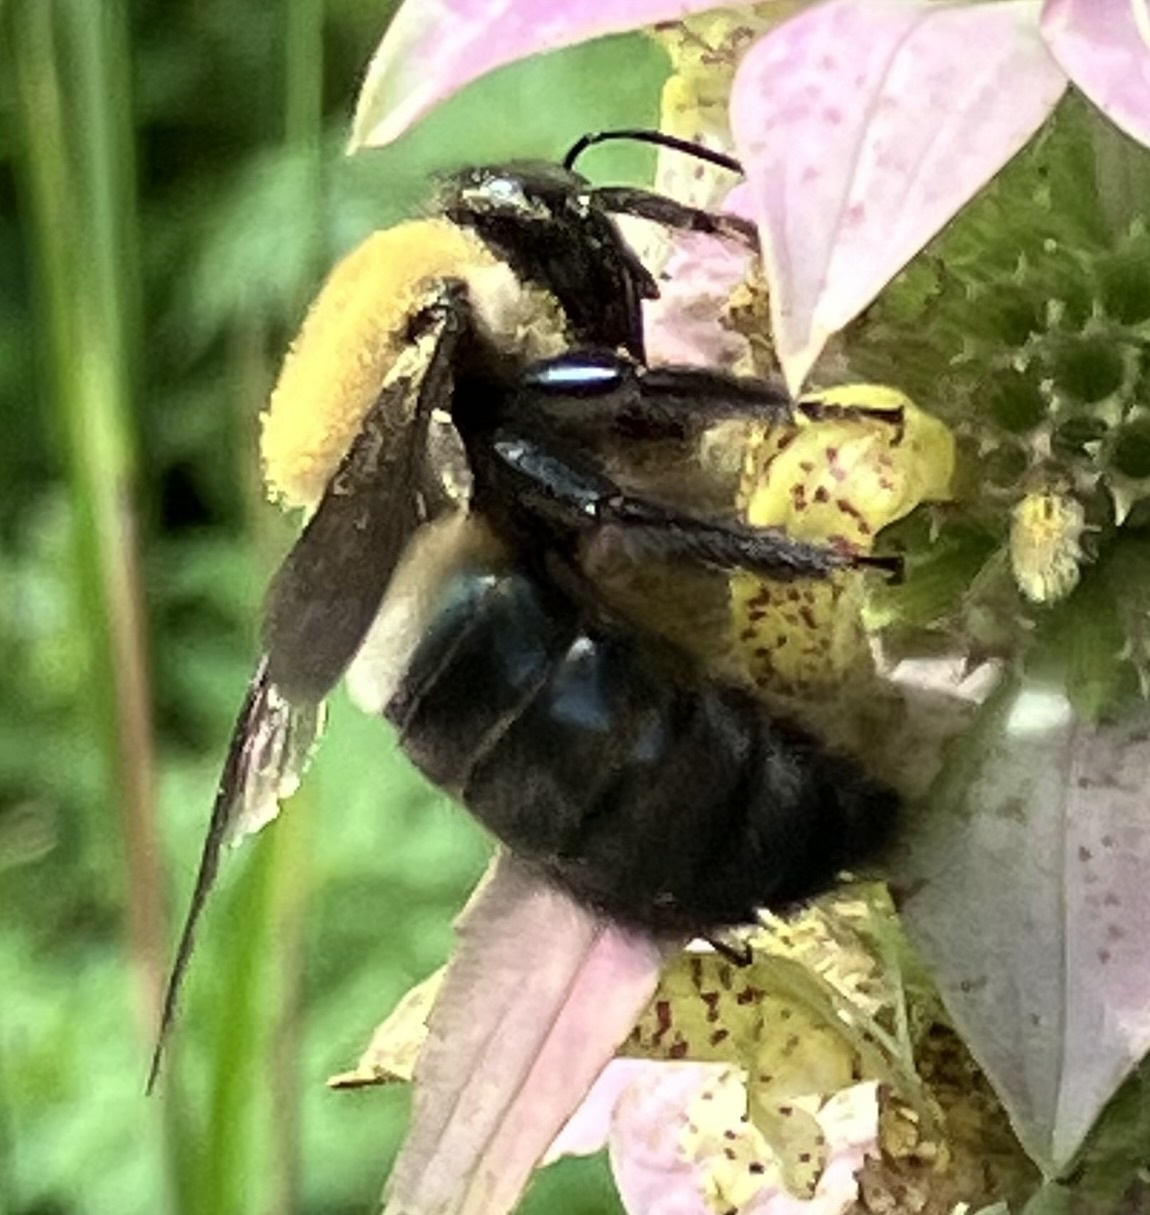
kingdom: Animalia
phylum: Arthropoda
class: Insecta
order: Hymenoptera
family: Apidae
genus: Xylocopa
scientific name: Xylocopa virginica
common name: Carpenter bee
